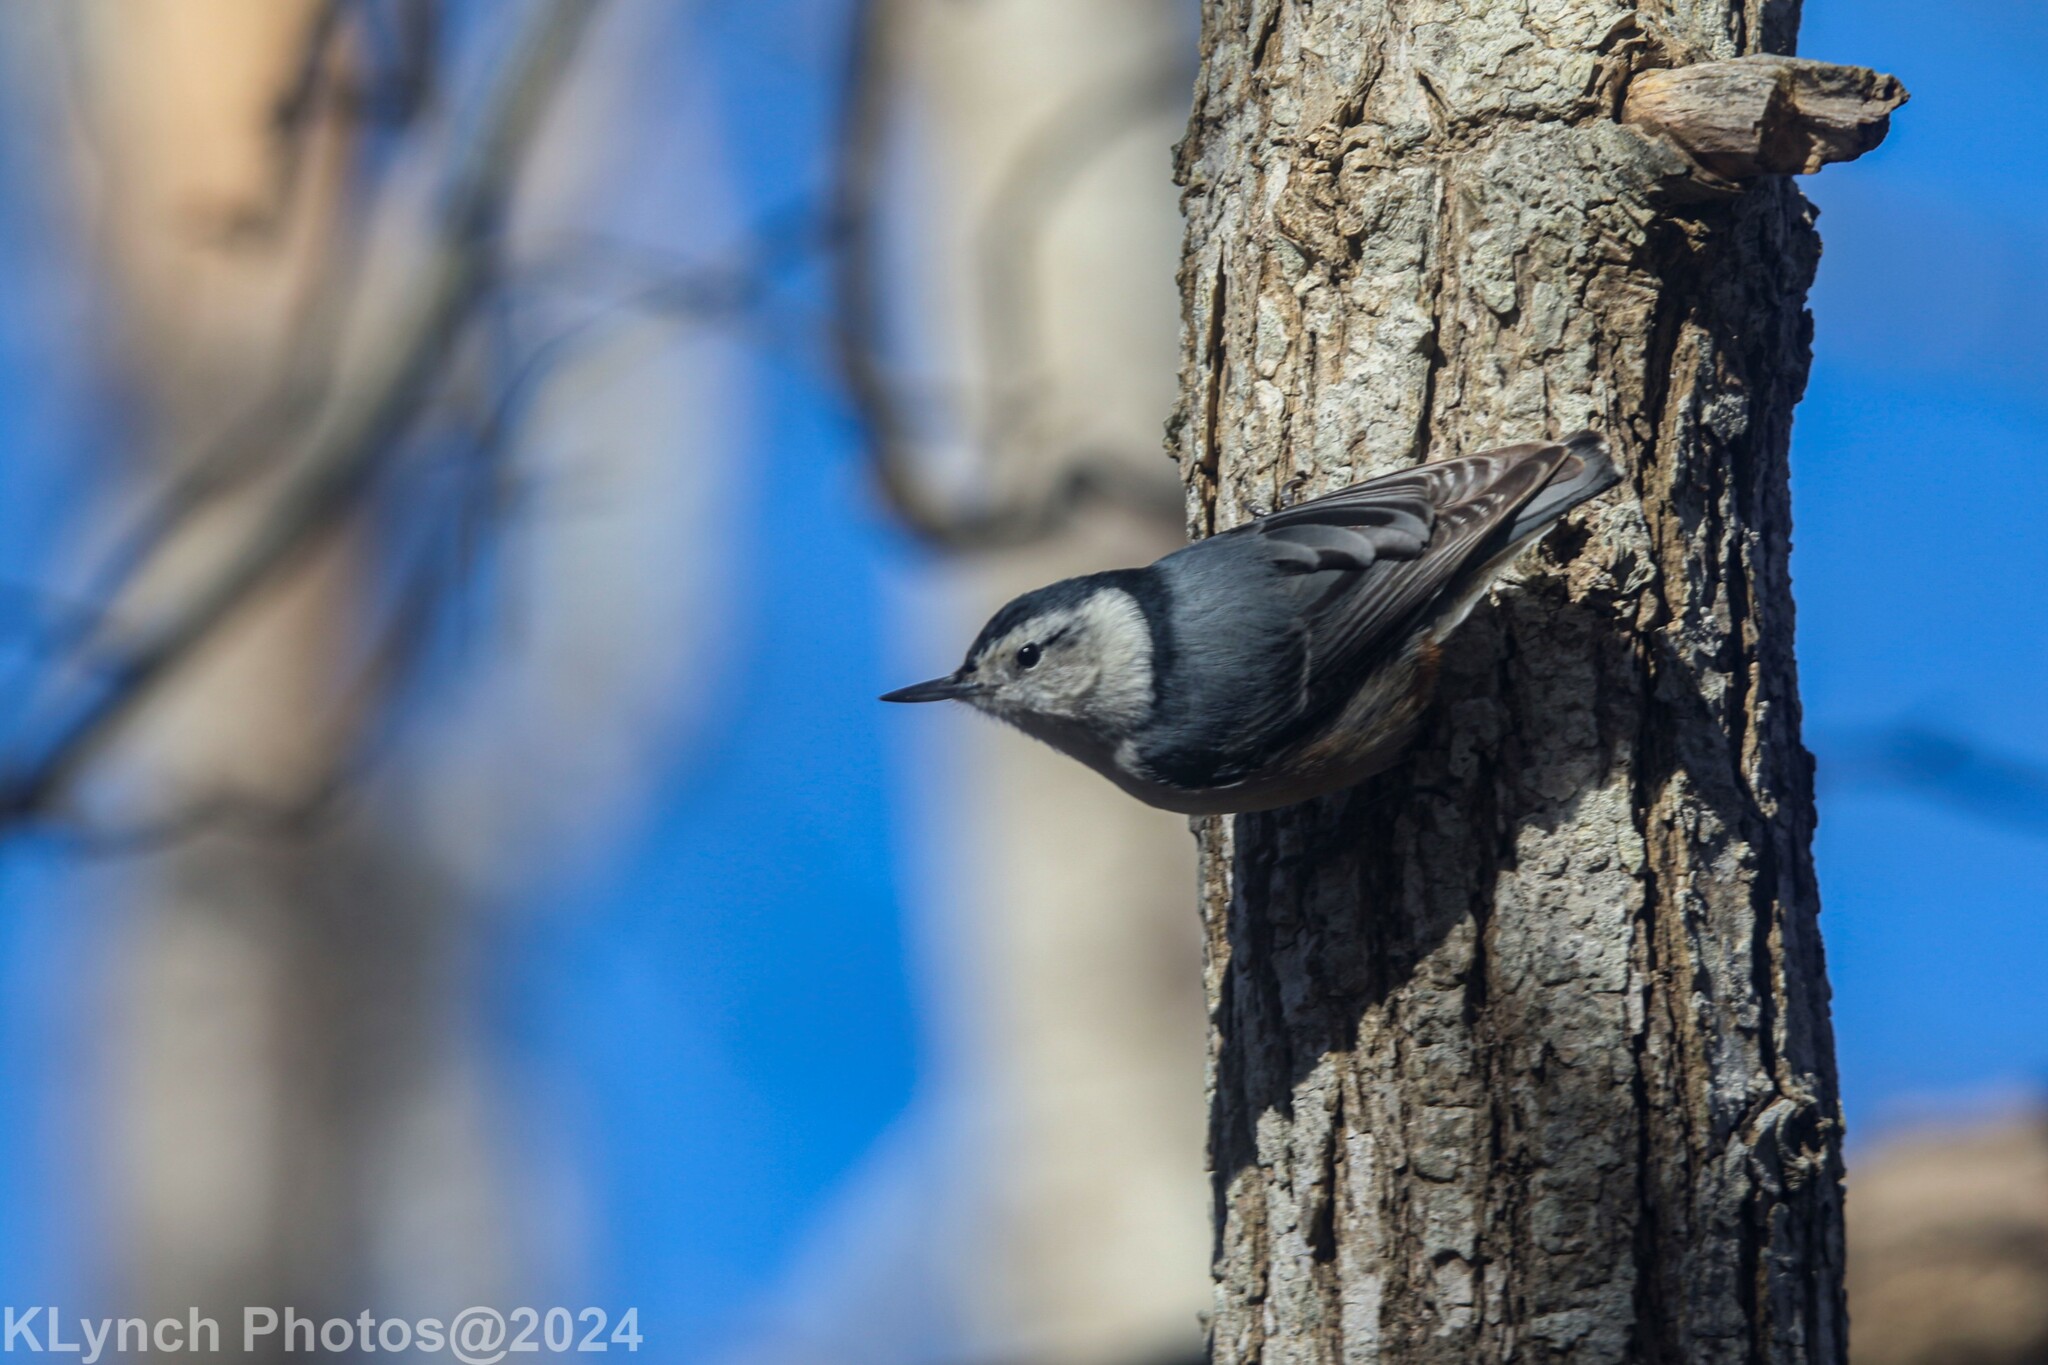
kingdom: Animalia
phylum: Chordata
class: Aves
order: Passeriformes
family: Sittidae
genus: Sitta
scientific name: Sitta carolinensis
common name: White-breasted nuthatch
